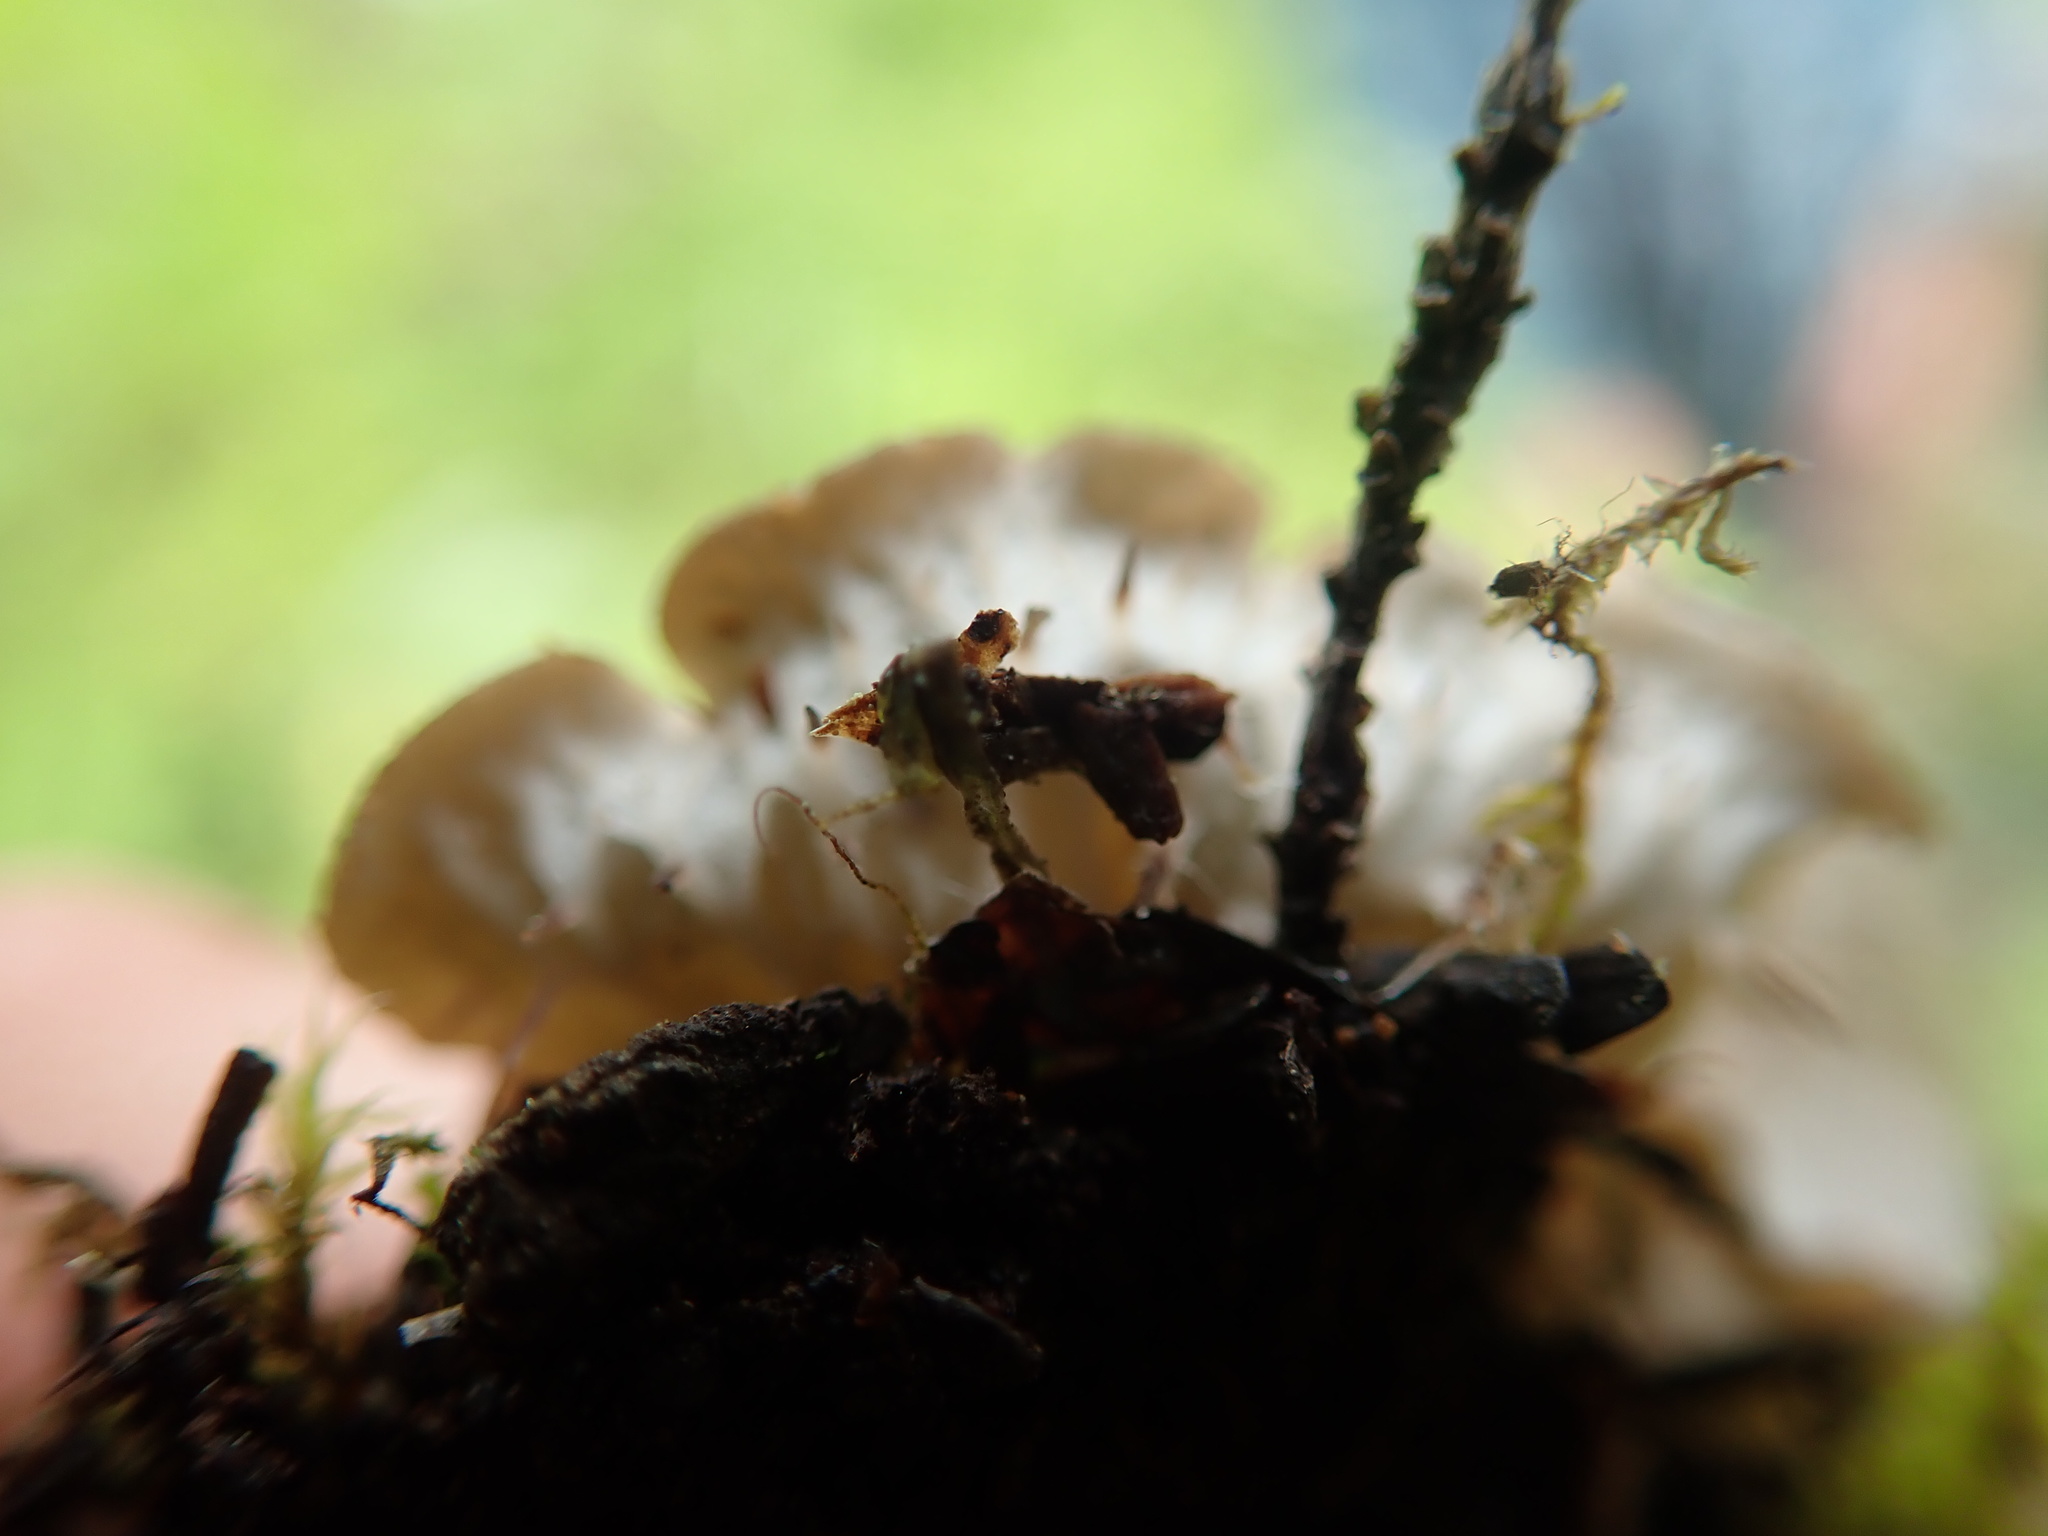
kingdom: Fungi
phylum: Ascomycota
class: Lecanoromycetes
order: Peltigerales
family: Peltigeraceae
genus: Peltigera
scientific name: Peltigera membranacea
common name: Membranous pelt lichen
